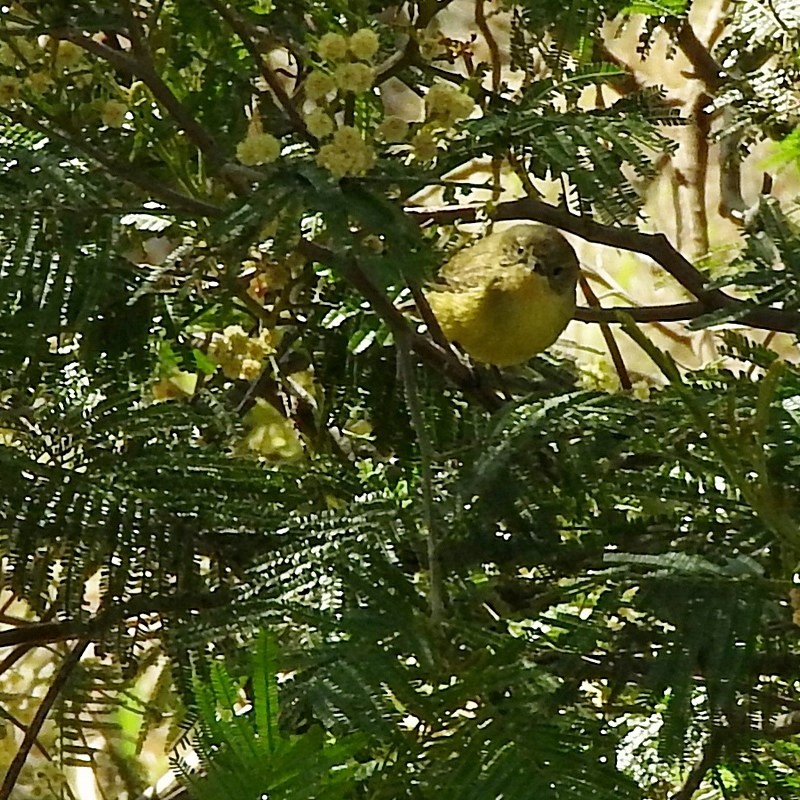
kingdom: Animalia
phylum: Chordata
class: Aves
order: Passeriformes
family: Acanthizidae
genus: Acanthiza
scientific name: Acanthiza nana
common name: Yellow thornbill
